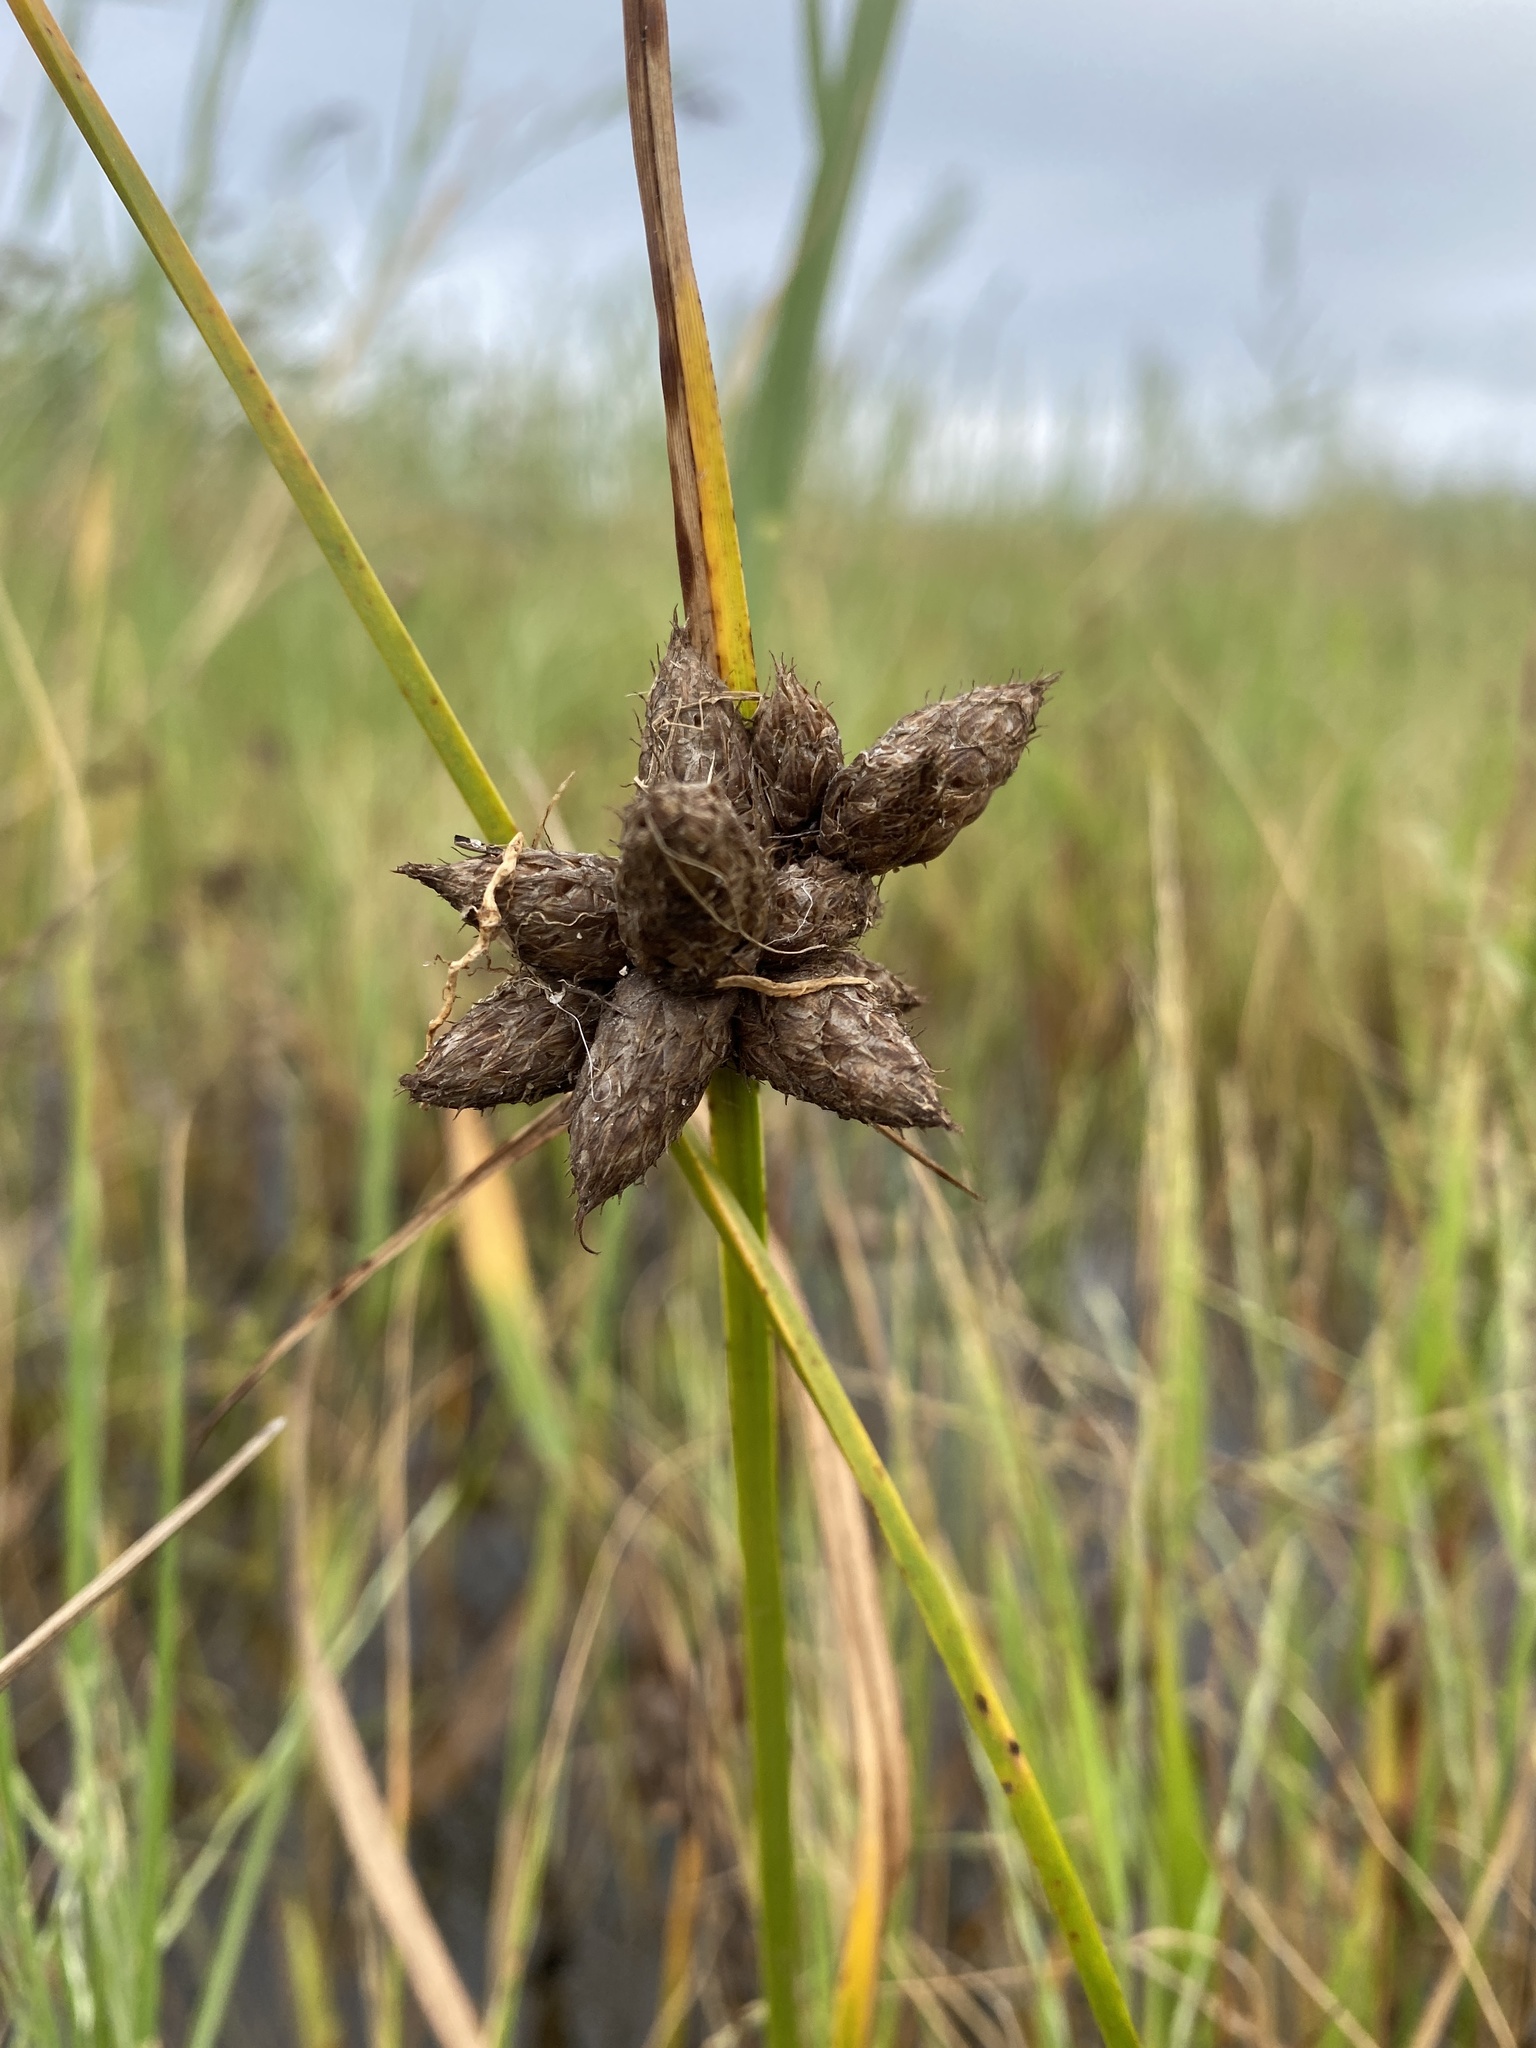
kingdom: Plantae
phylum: Tracheophyta
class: Liliopsida
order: Poales
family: Cyperaceae
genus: Bolboschoenus
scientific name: Bolboschoenus maritimus
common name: Sea club-rush
